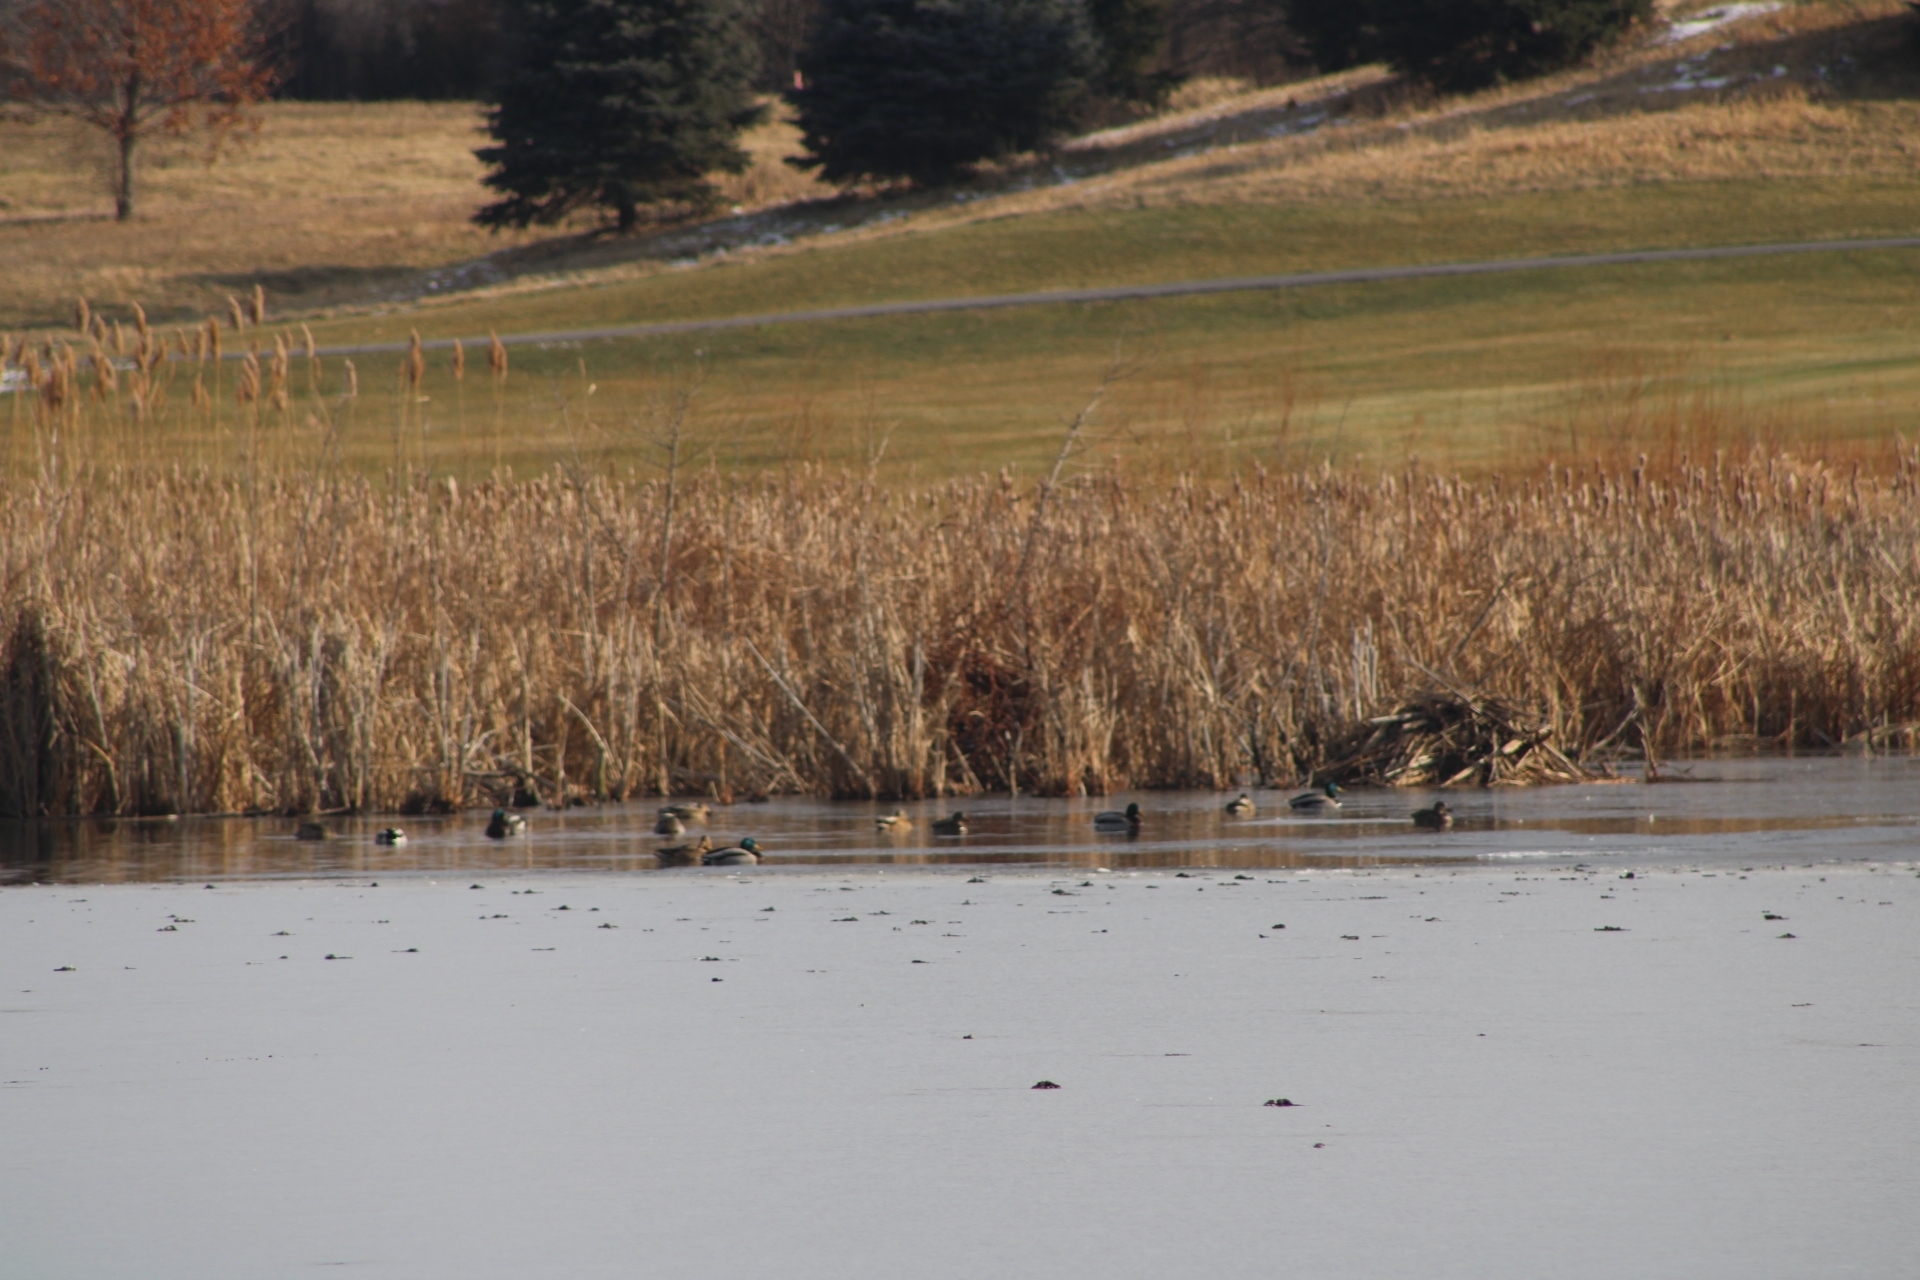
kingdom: Animalia
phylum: Chordata
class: Aves
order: Anseriformes
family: Anatidae
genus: Anas
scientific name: Anas platyrhynchos
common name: Mallard
